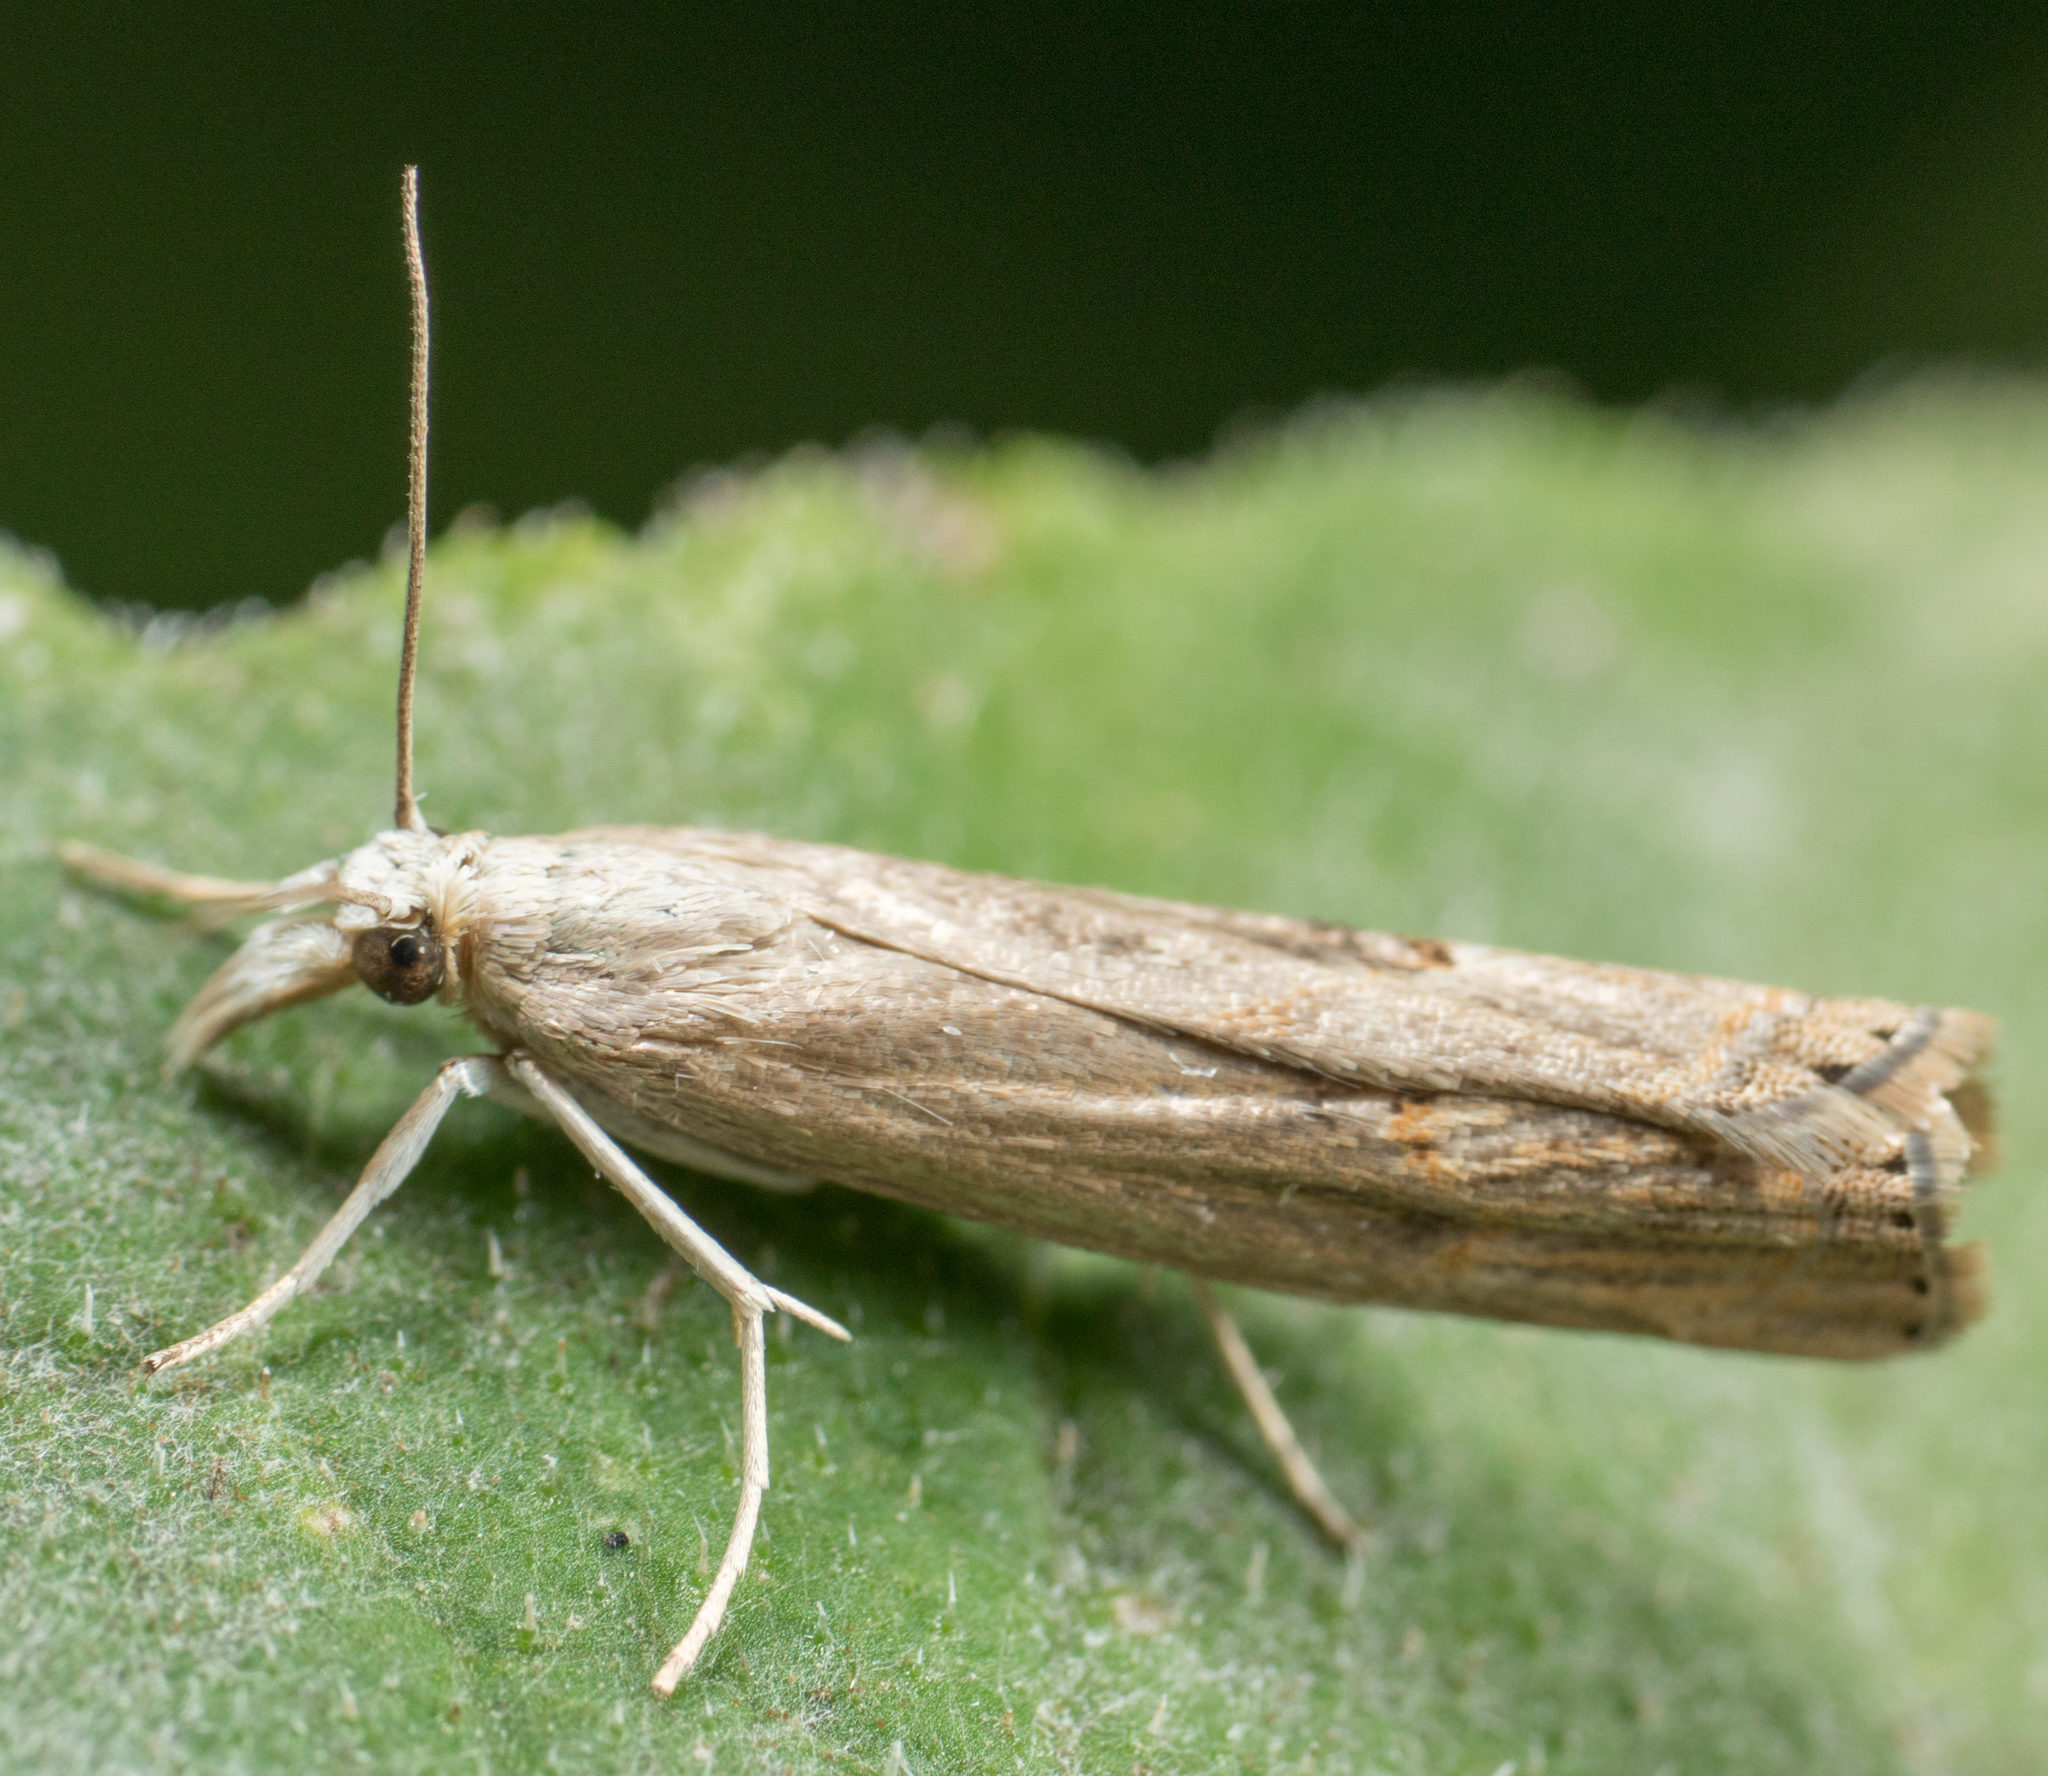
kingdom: Animalia
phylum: Arthropoda
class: Insecta
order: Lepidoptera
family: Crambidae
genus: Parapediasia
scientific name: Parapediasia teterellus
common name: Bluegrass webworm moth
